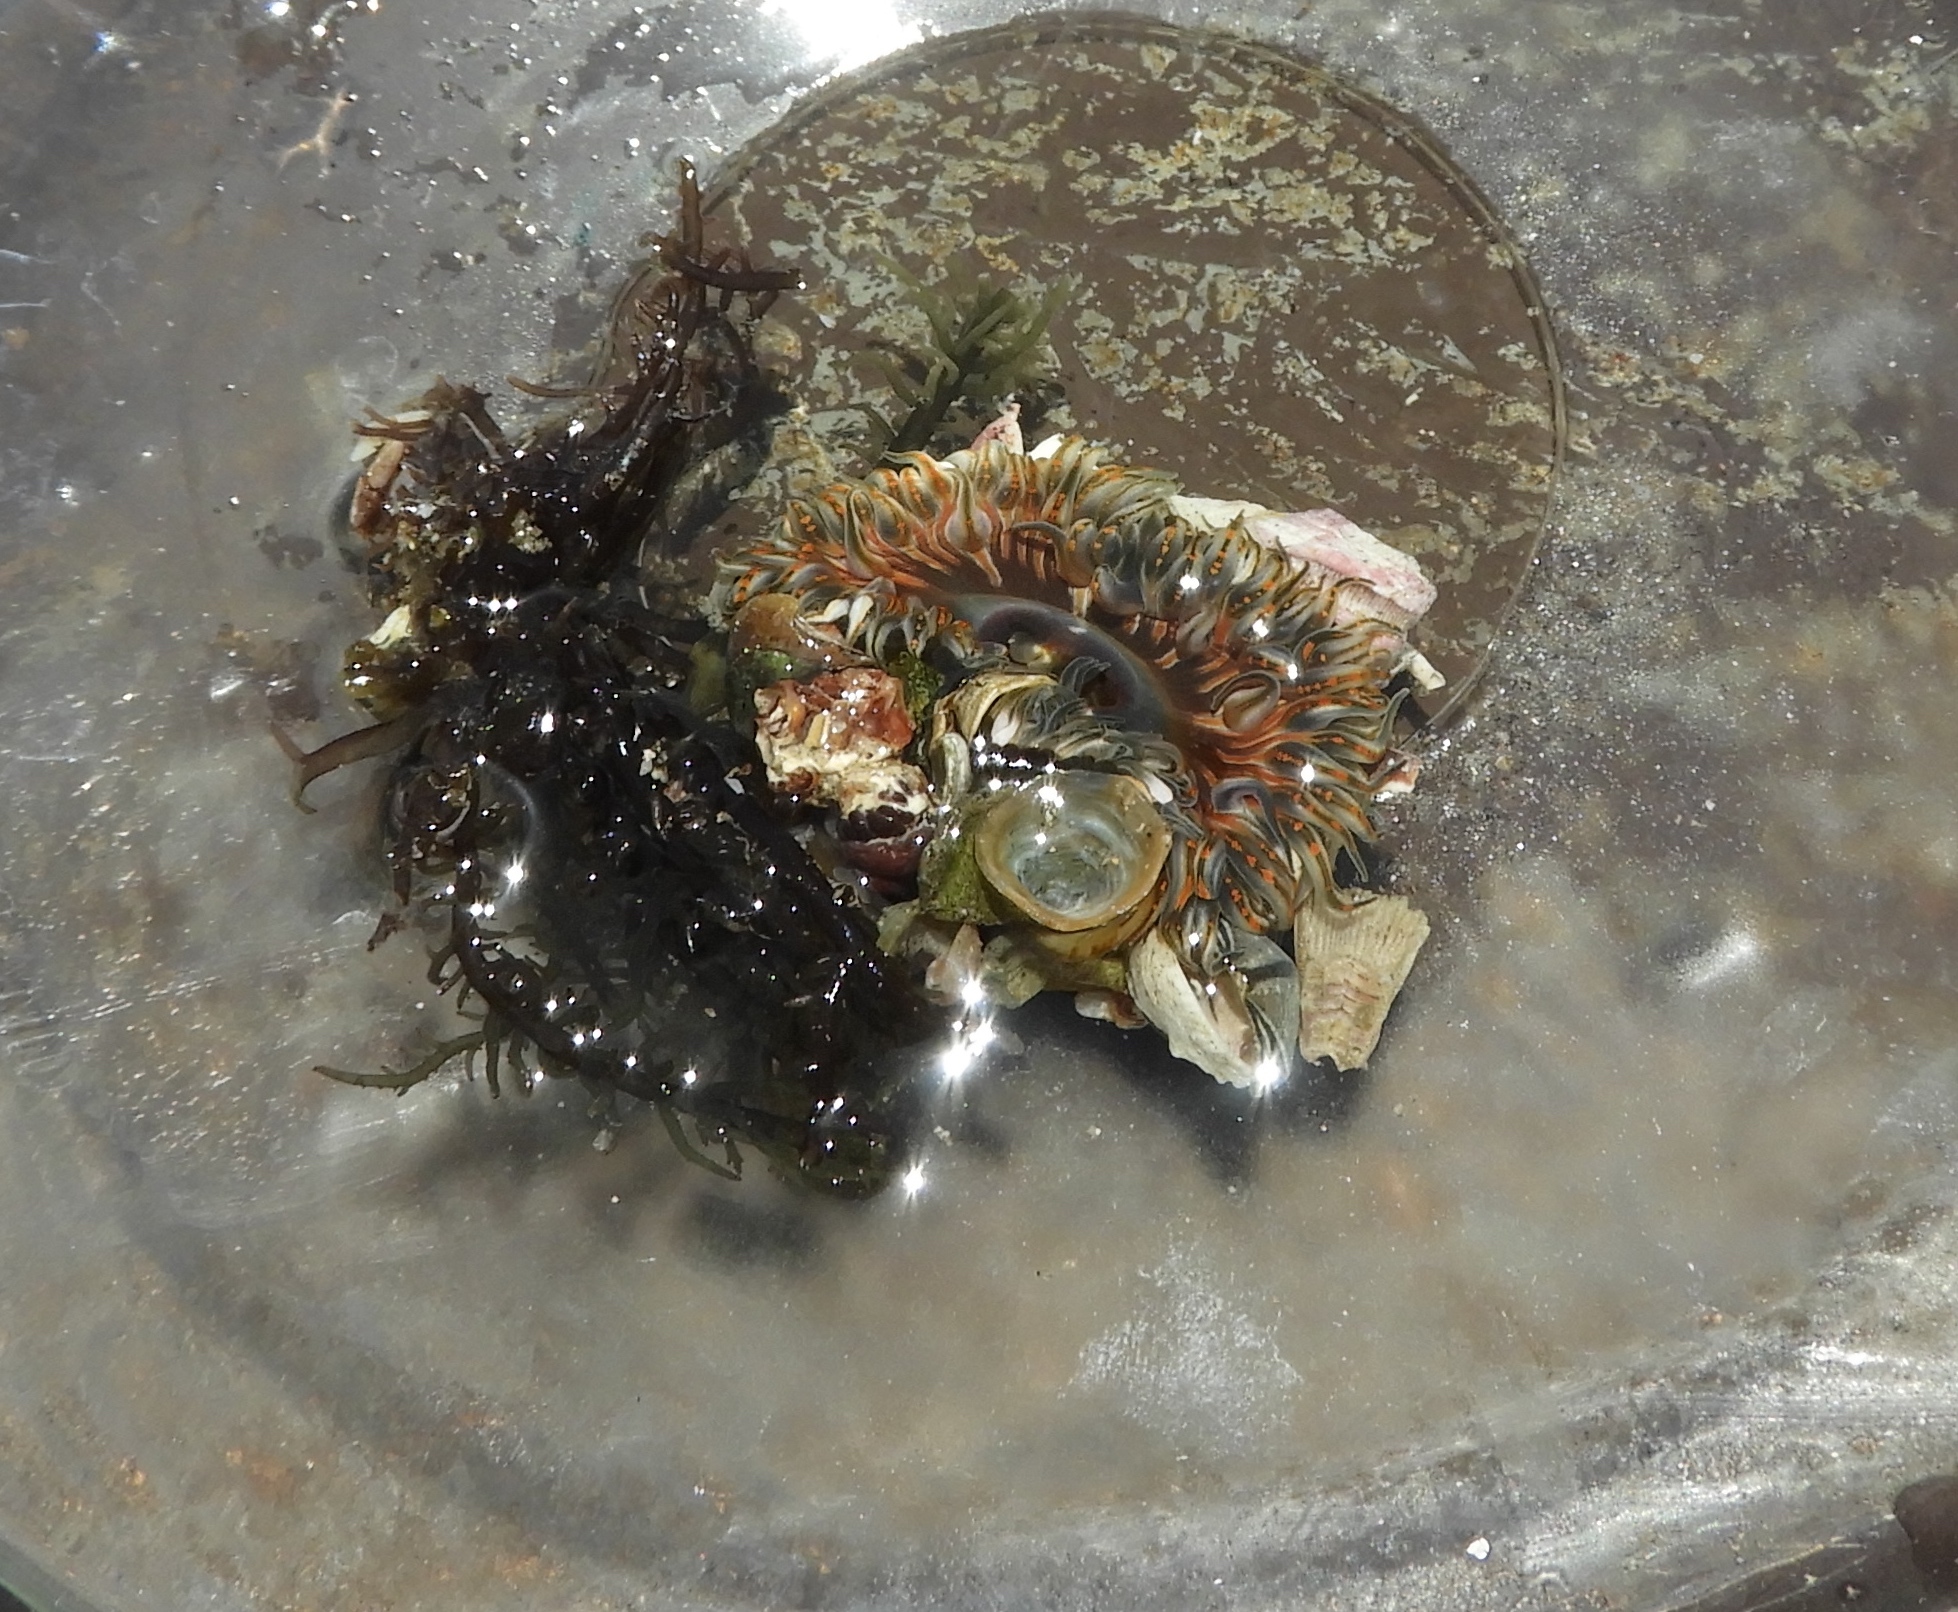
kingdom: Animalia
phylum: Cnidaria
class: Anthozoa
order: Actiniaria
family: Actiniidae
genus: Anthopleura
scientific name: Anthopleura dowii
